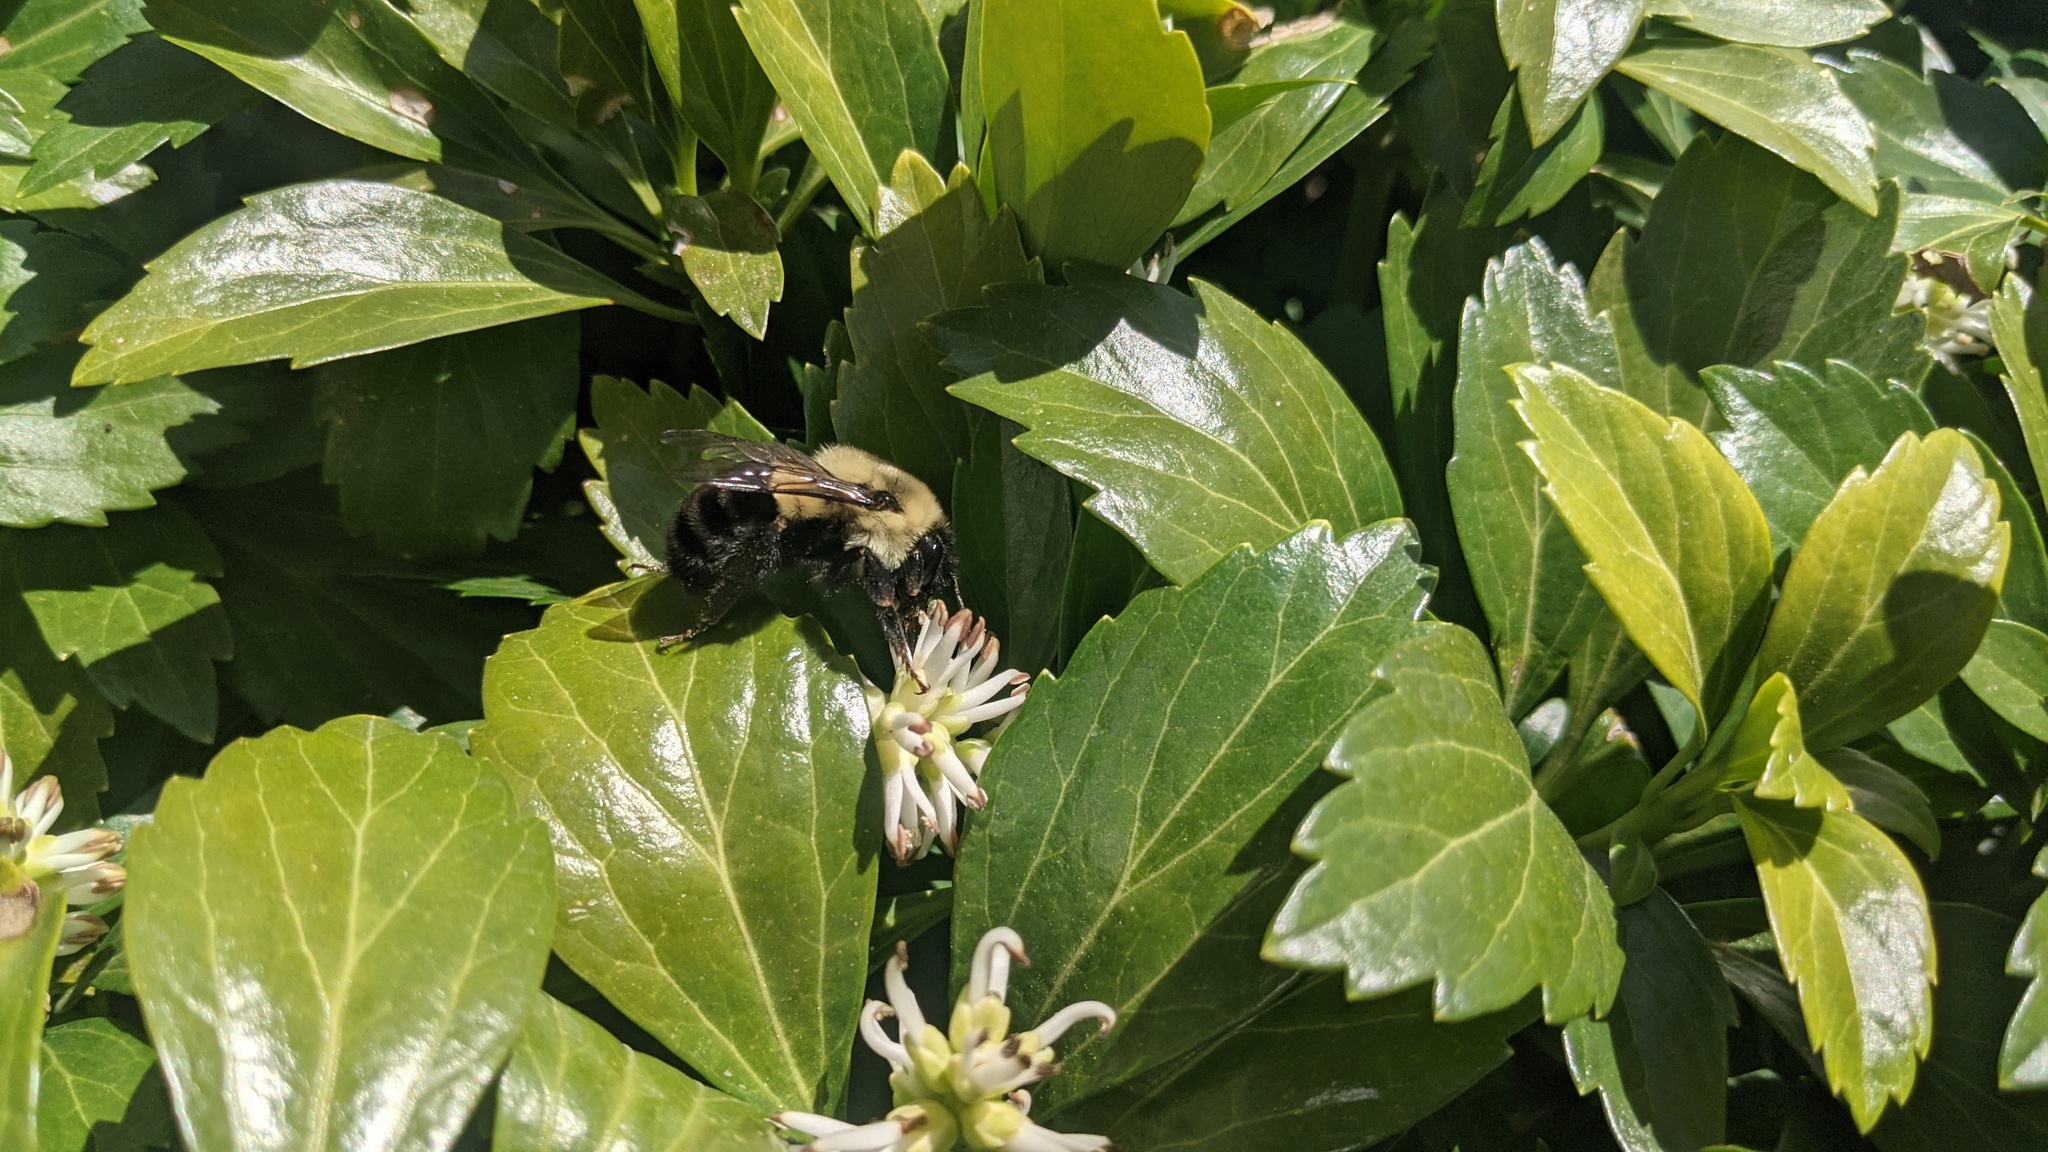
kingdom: Animalia
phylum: Arthropoda
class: Insecta
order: Hymenoptera
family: Apidae
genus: Bombus
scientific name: Bombus impatiens
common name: Common eastern bumble bee
